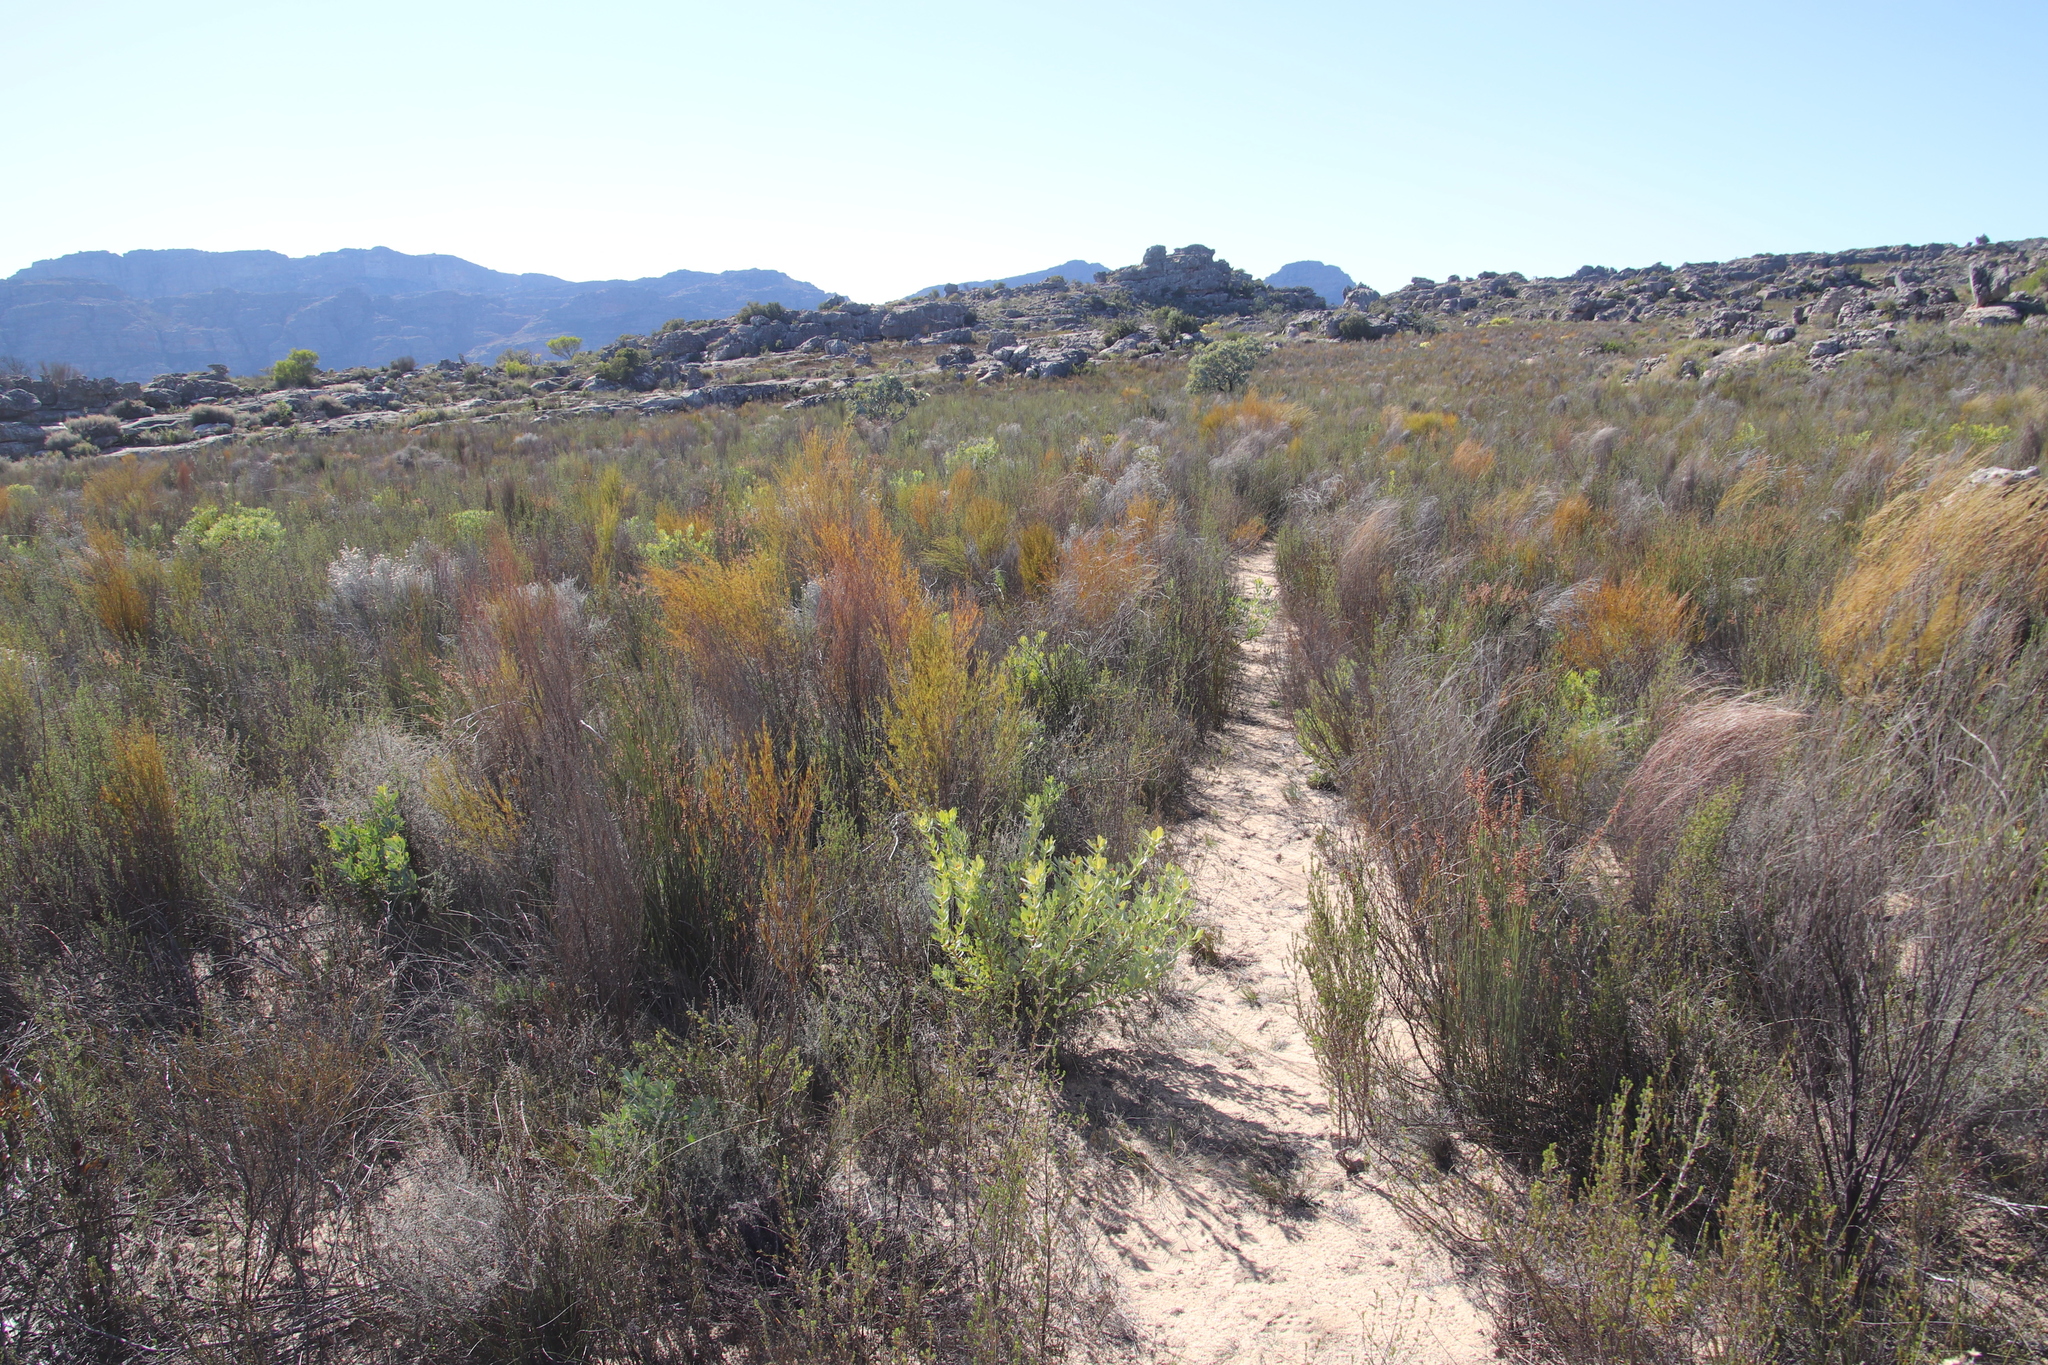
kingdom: Plantae
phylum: Tracheophyta
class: Magnoliopsida
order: Fabales
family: Fabaceae
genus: Aspalathus
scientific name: Aspalathus linearis
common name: Rooibos-tea
